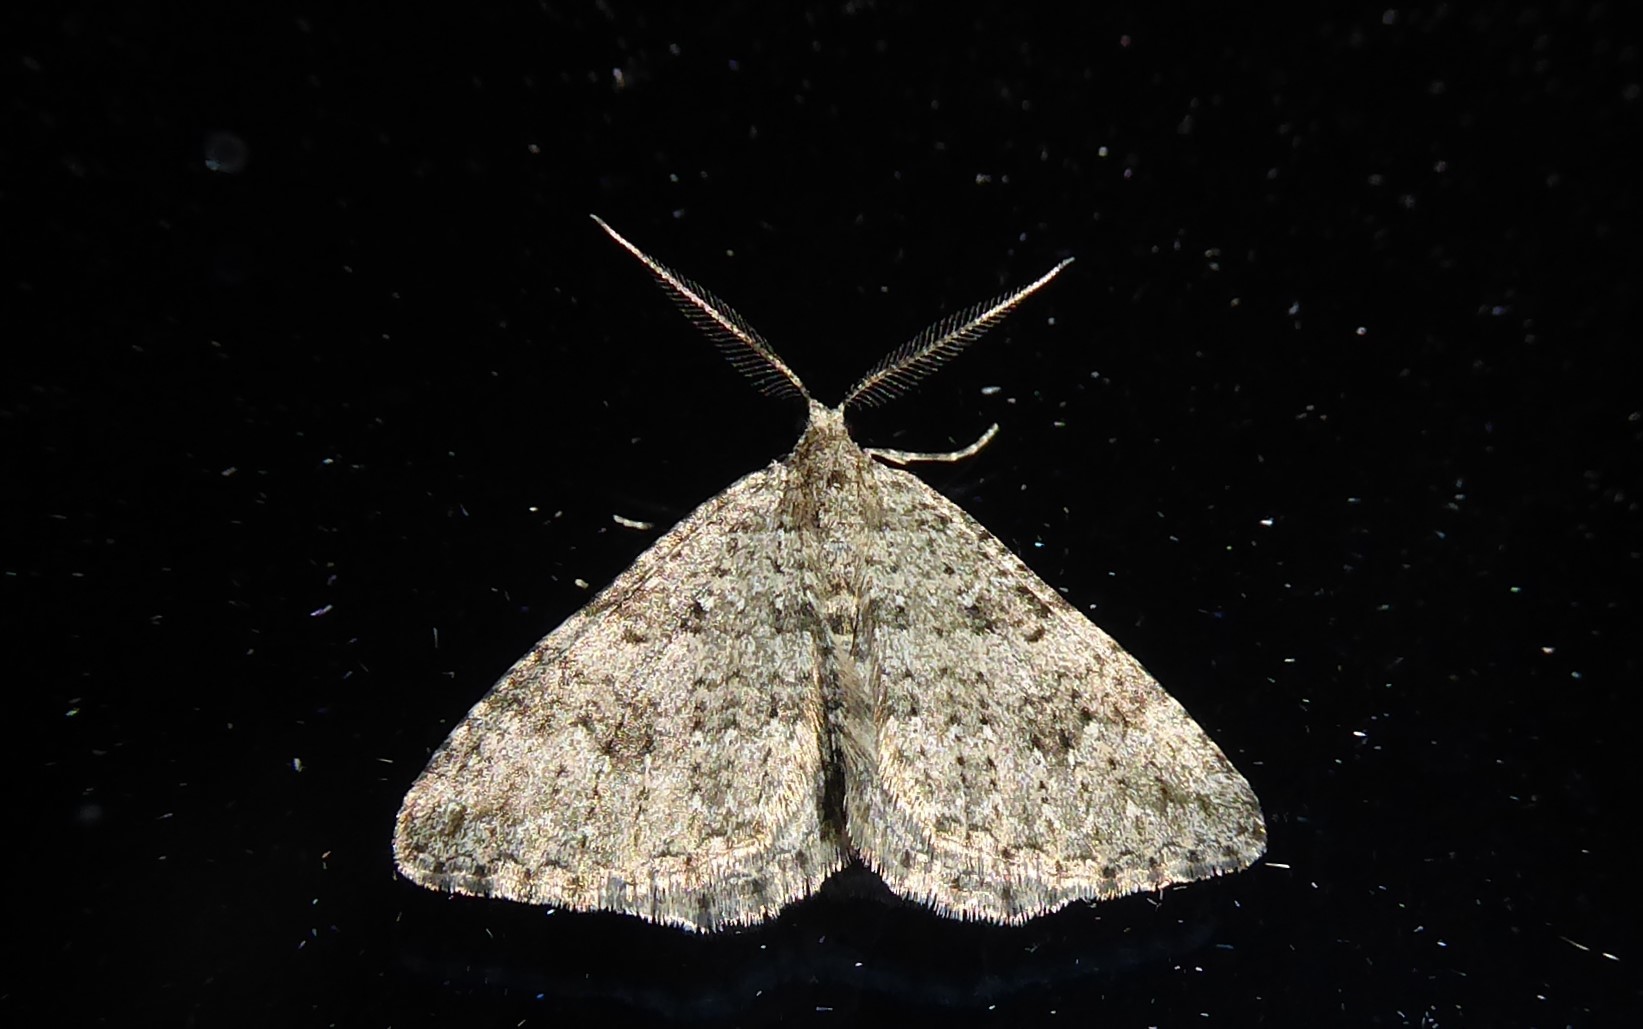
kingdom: Animalia
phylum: Arthropoda
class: Insecta
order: Lepidoptera
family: Geometridae
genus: Helastia
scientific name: Helastia corcularia
